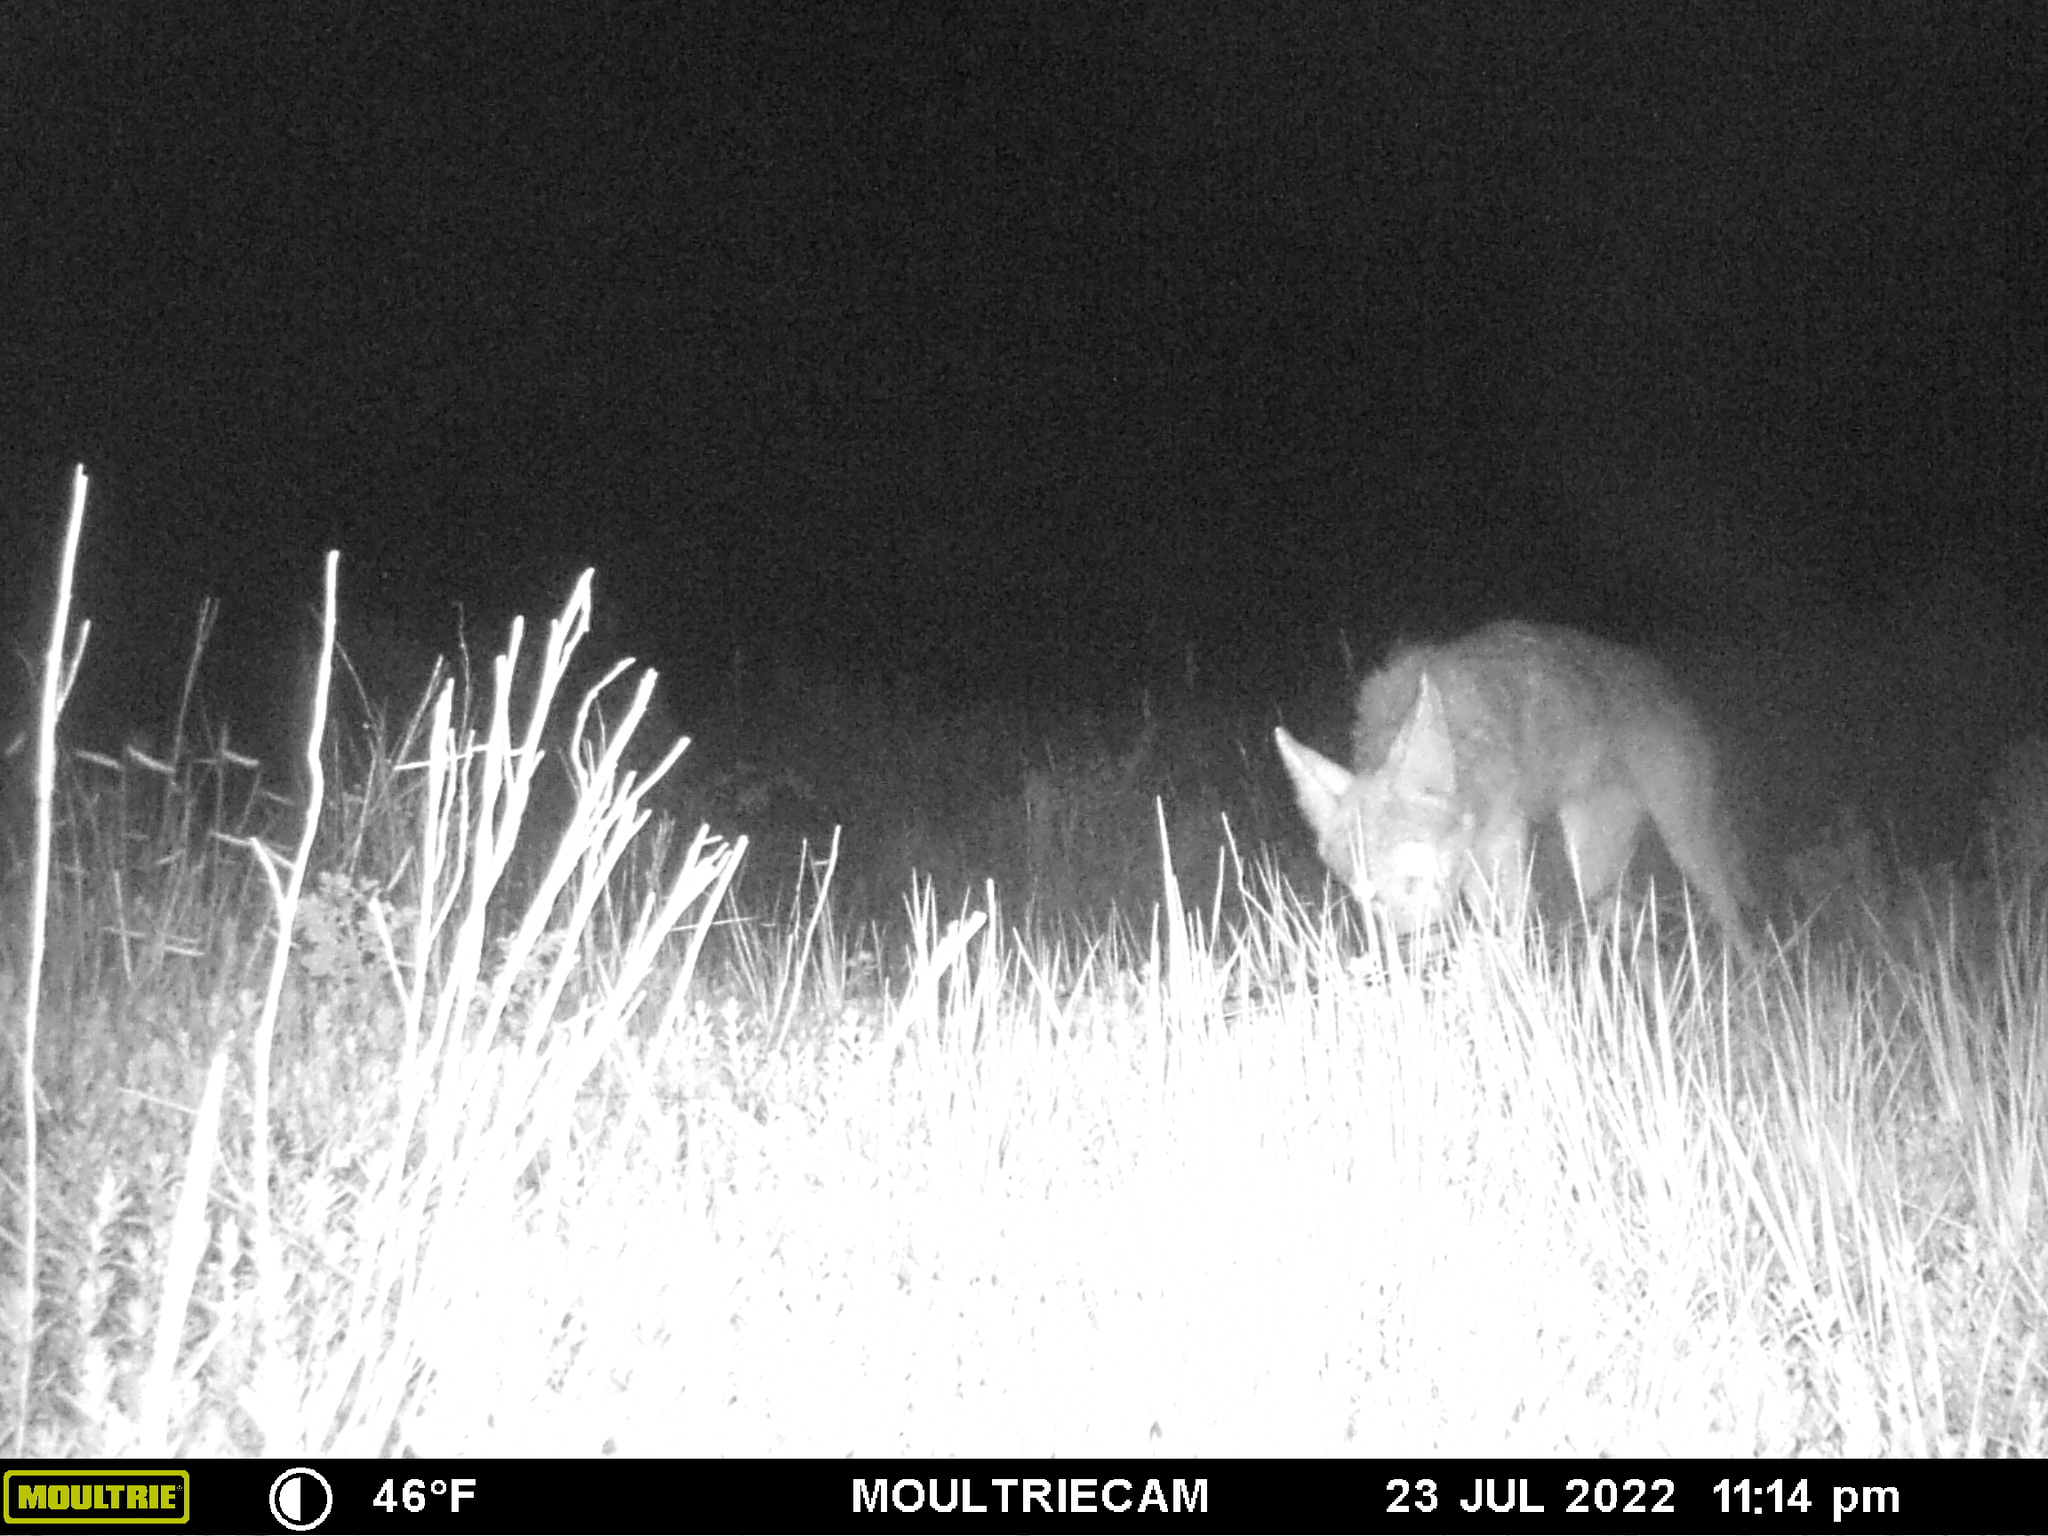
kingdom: Animalia
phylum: Chordata
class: Mammalia
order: Carnivora
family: Canidae
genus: Canis
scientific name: Canis latrans
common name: Coyote
